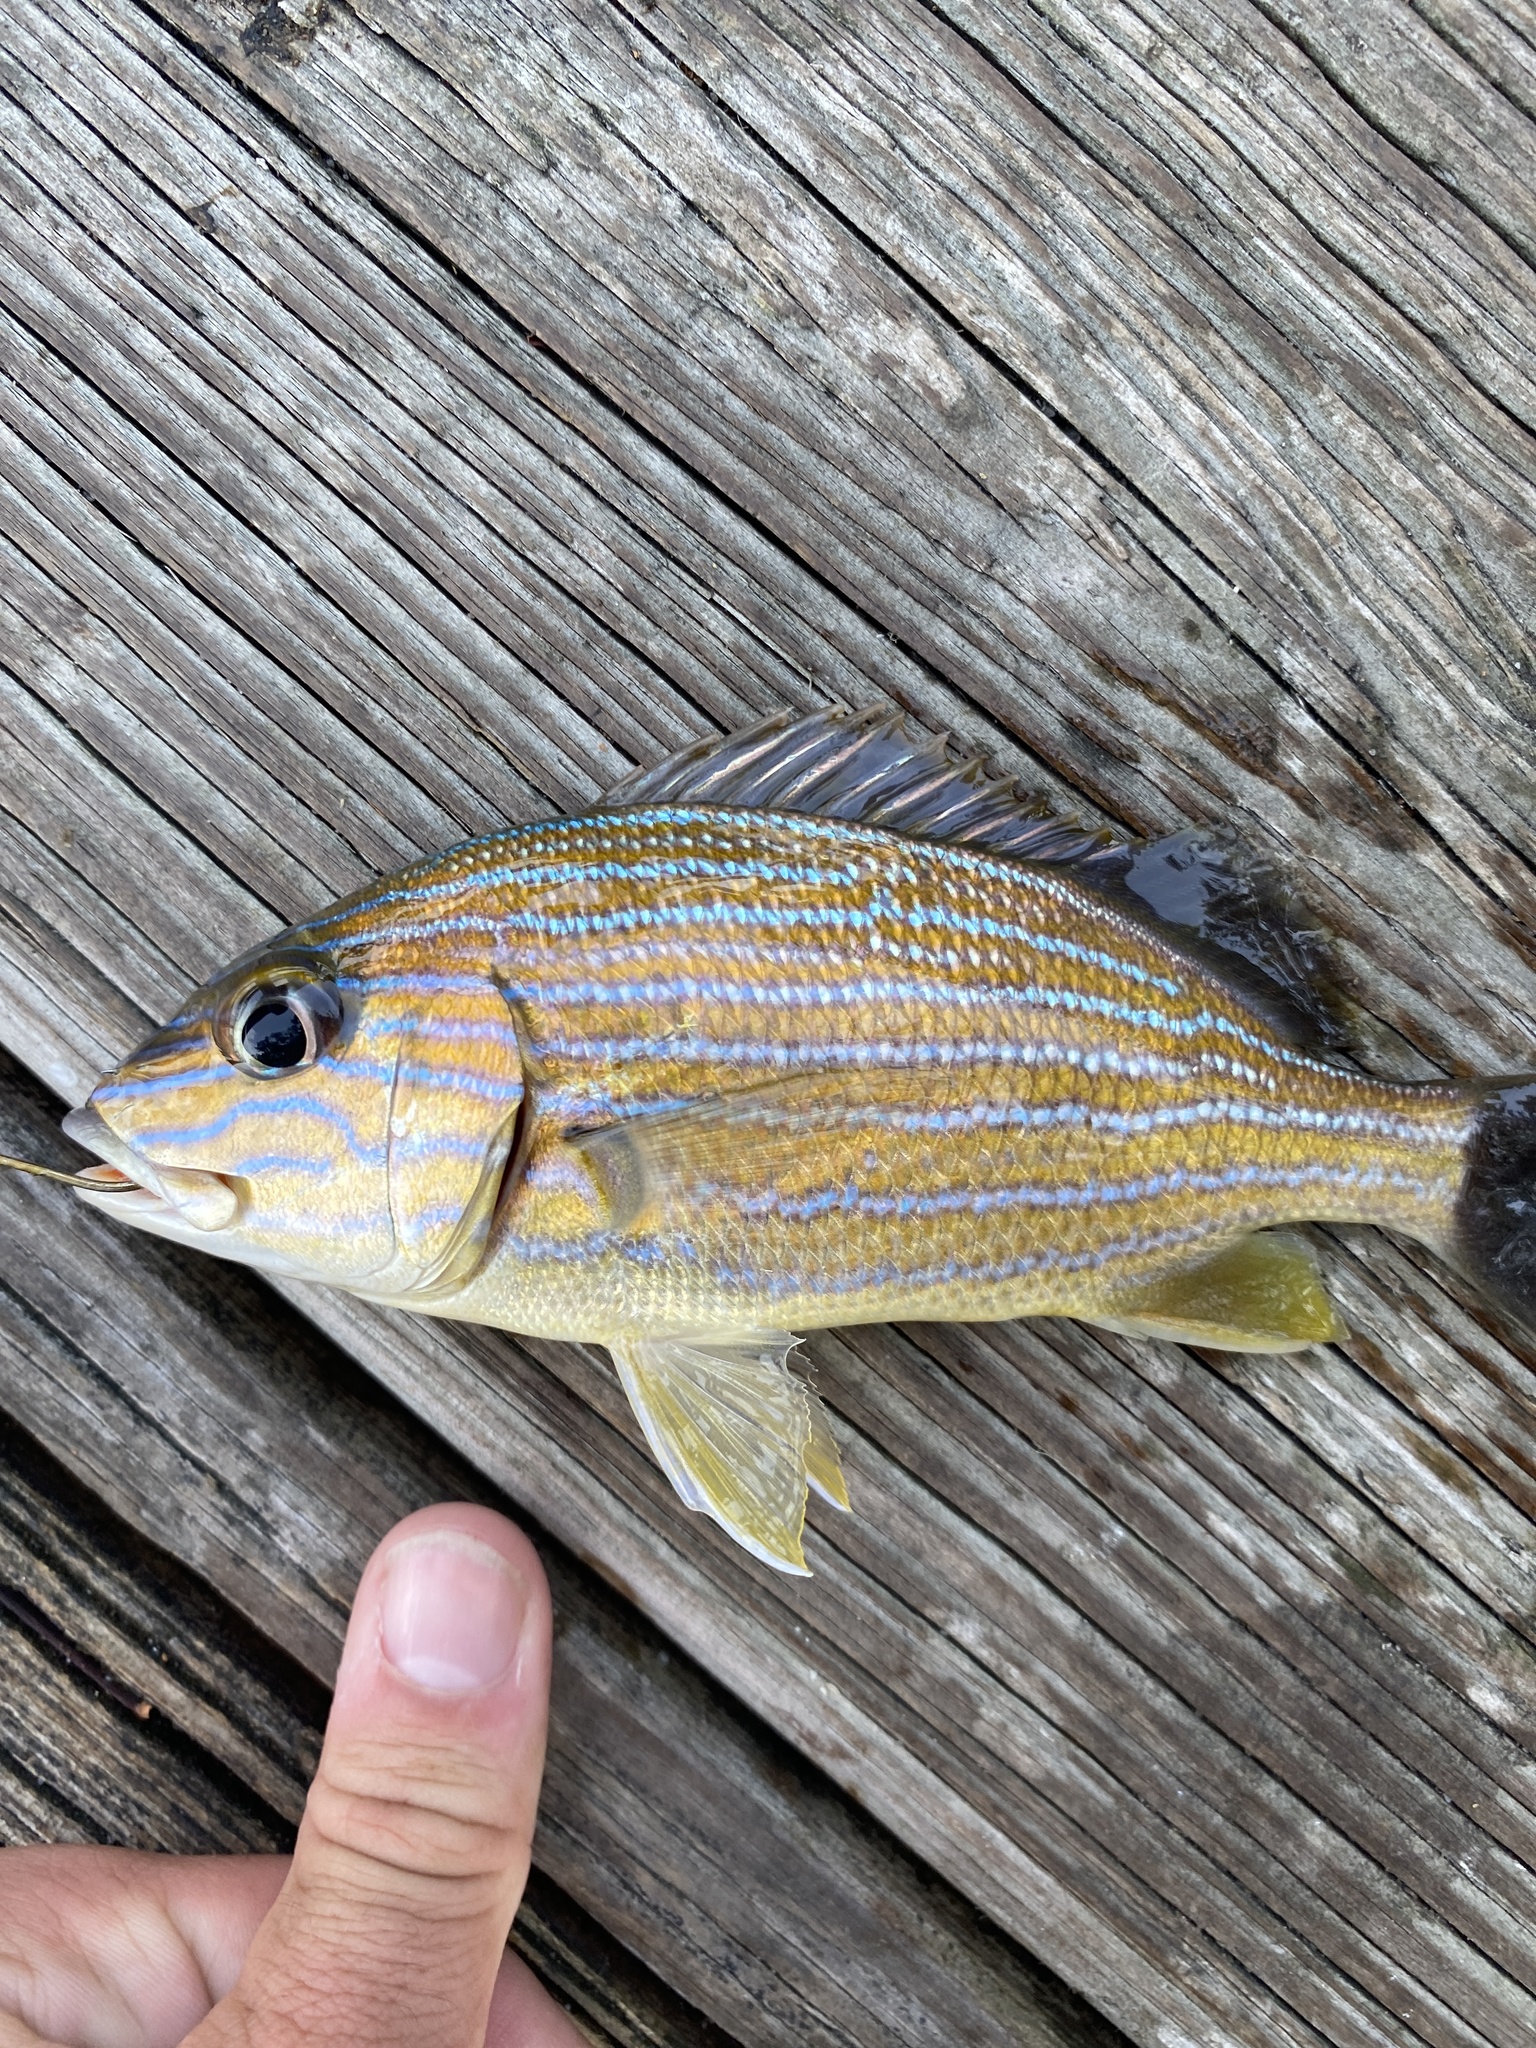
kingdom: Animalia
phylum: Chordata
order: Perciformes
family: Haemulidae
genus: Haemulon
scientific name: Haemulon sciurus
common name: Bluestriped grunt
